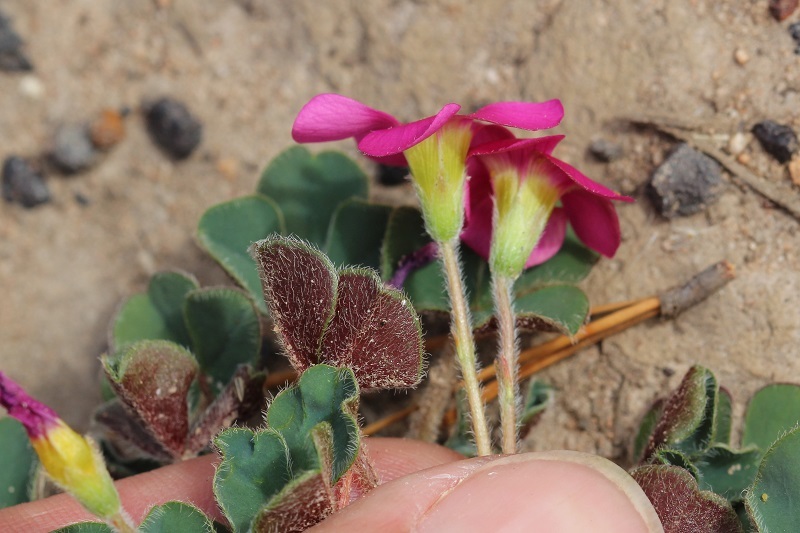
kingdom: Plantae
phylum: Tracheophyta
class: Magnoliopsida
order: Oxalidales
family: Oxalidaceae
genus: Oxalis
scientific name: Oxalis imbricata
